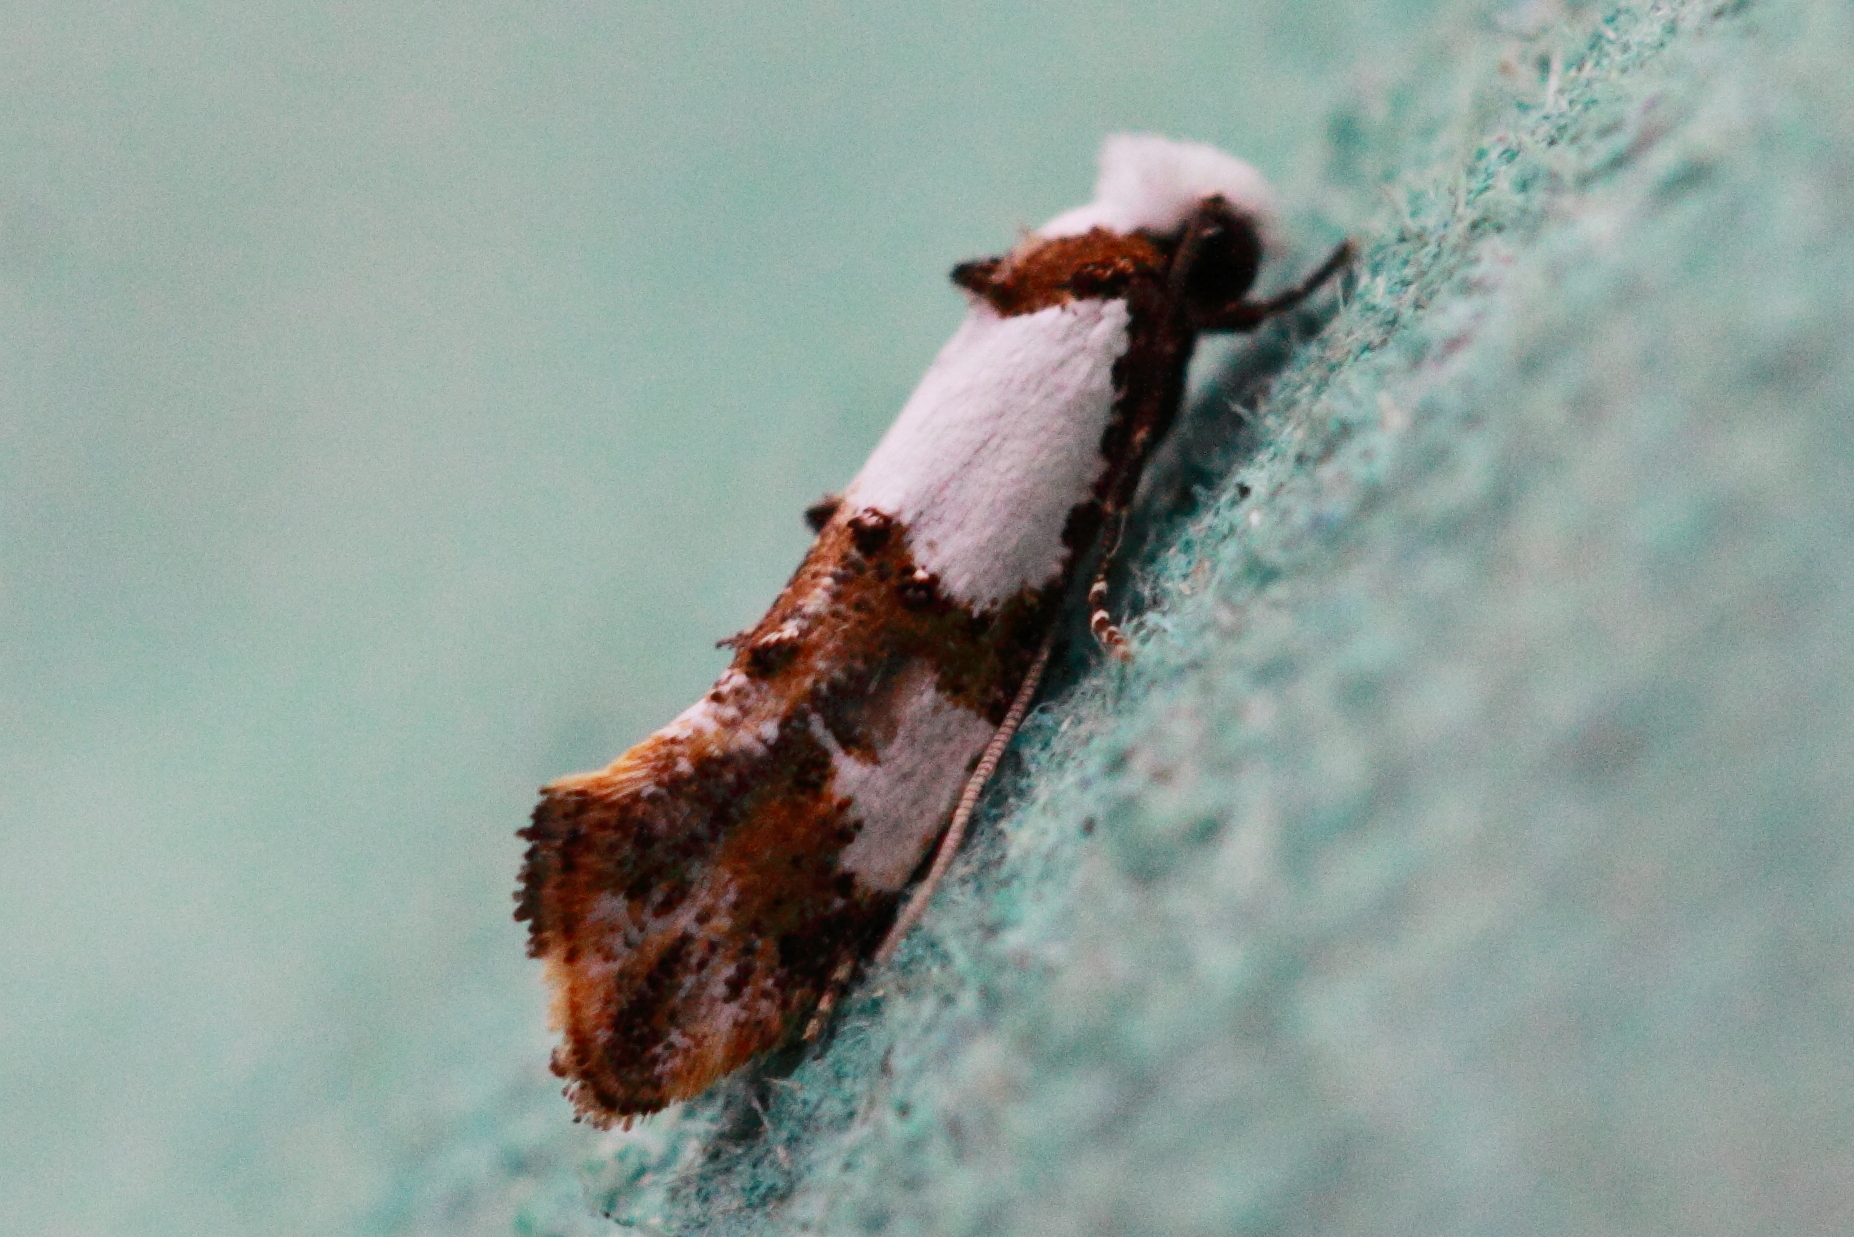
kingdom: Animalia
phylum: Arthropoda
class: Insecta
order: Lepidoptera
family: Tineidae
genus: Monopis
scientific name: Monopis meliorella
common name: Blotched monopis moth
